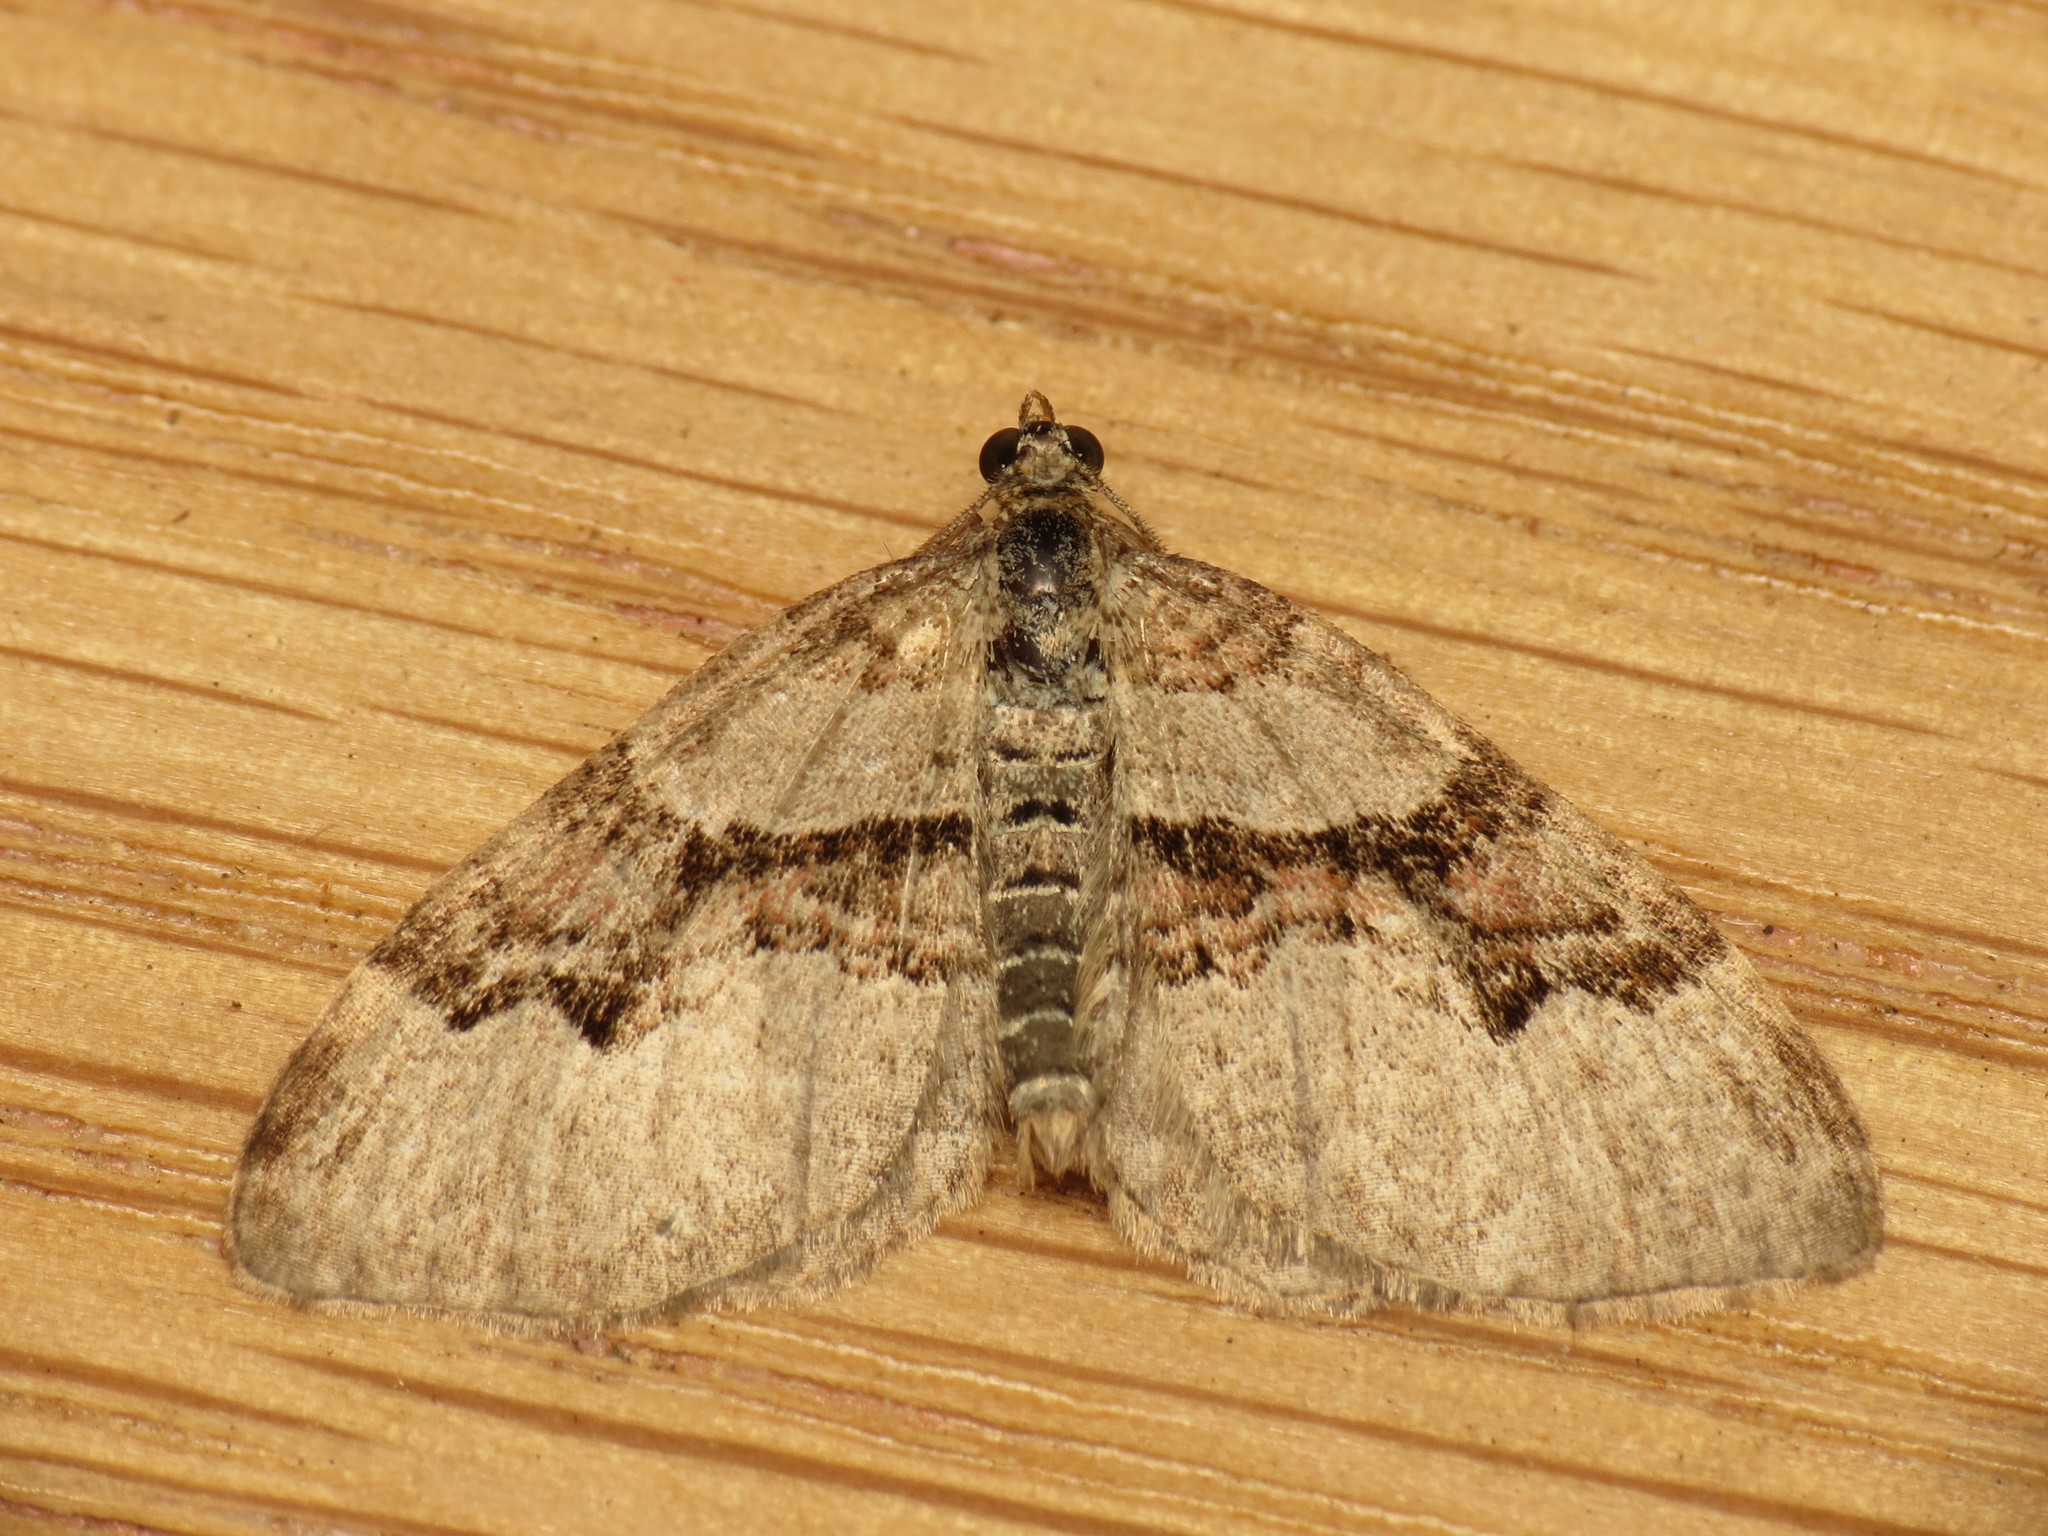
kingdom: Animalia
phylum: Arthropoda
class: Insecta
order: Lepidoptera
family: Geometridae
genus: Xanthorhoe
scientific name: Xanthorhoe designata
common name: Flame carpet
